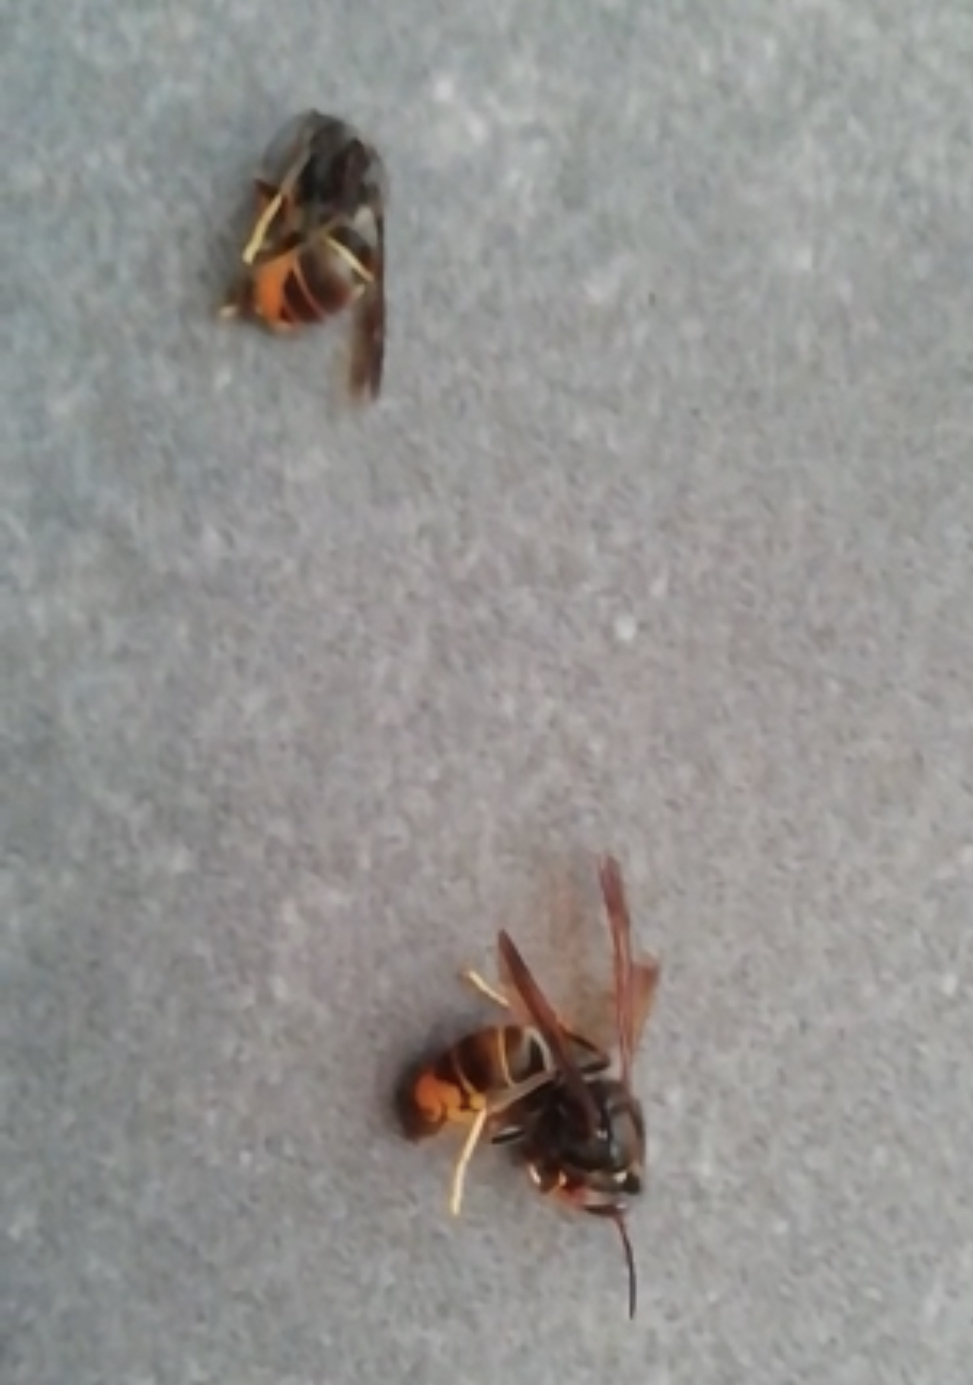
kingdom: Animalia
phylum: Arthropoda
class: Insecta
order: Hymenoptera
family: Vespidae
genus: Vespa
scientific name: Vespa velutina
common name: Asian hornet
